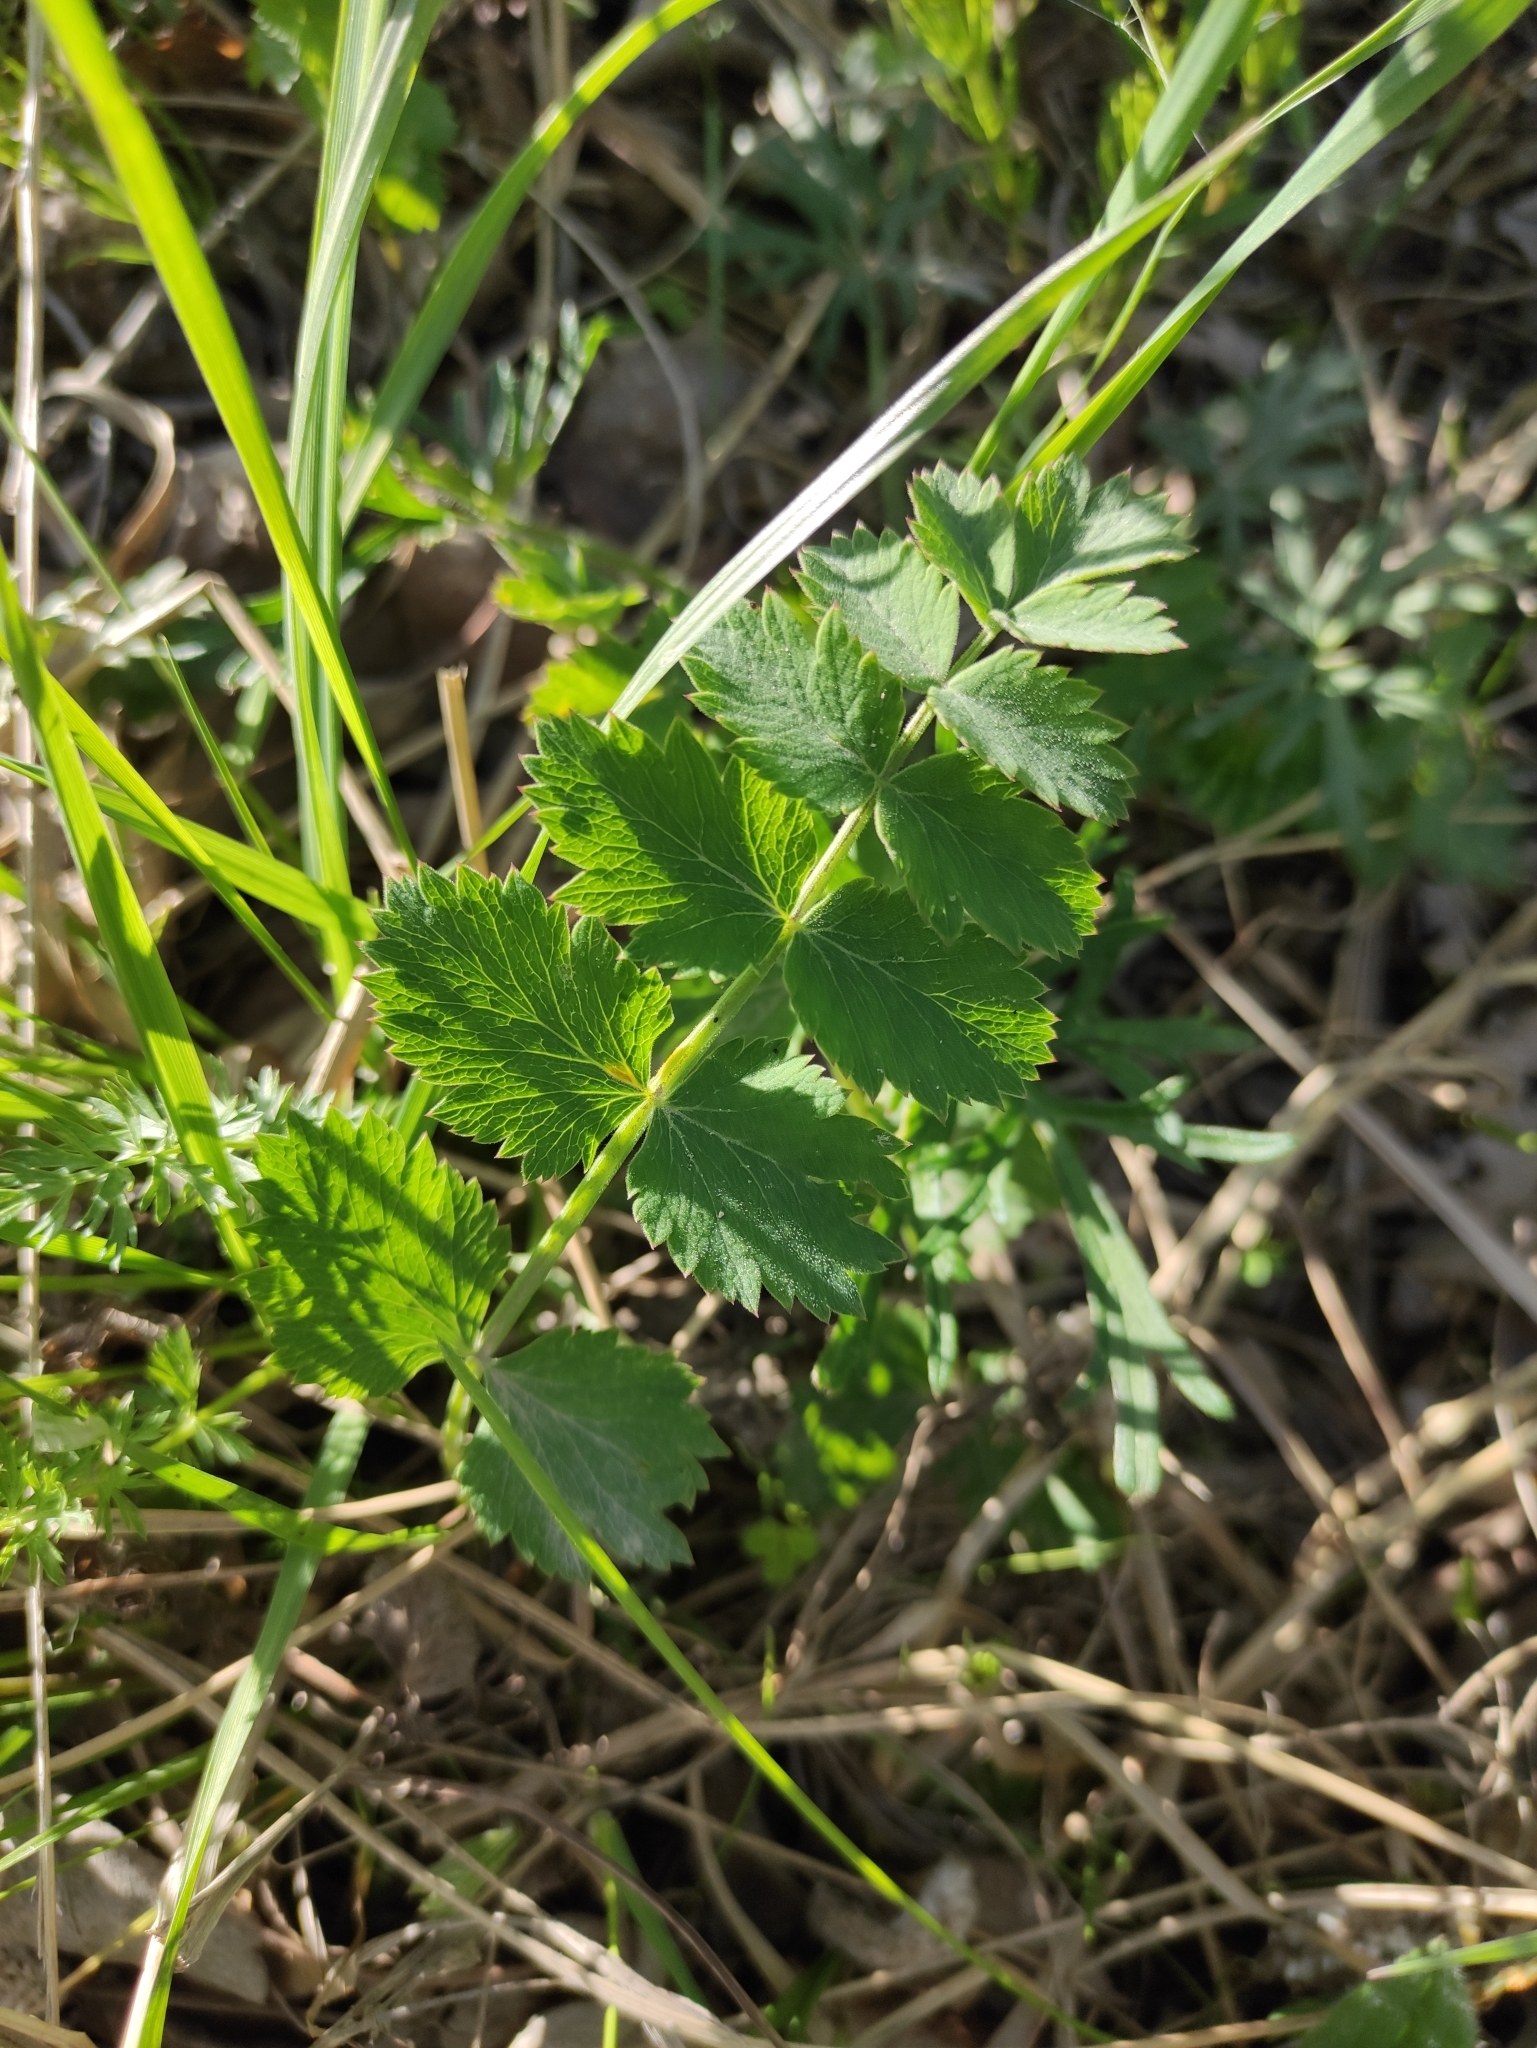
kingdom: Plantae
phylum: Tracheophyta
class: Magnoliopsida
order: Apiales
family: Apiaceae
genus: Pimpinella
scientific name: Pimpinella saxifraga
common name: Burnet-saxifrage
